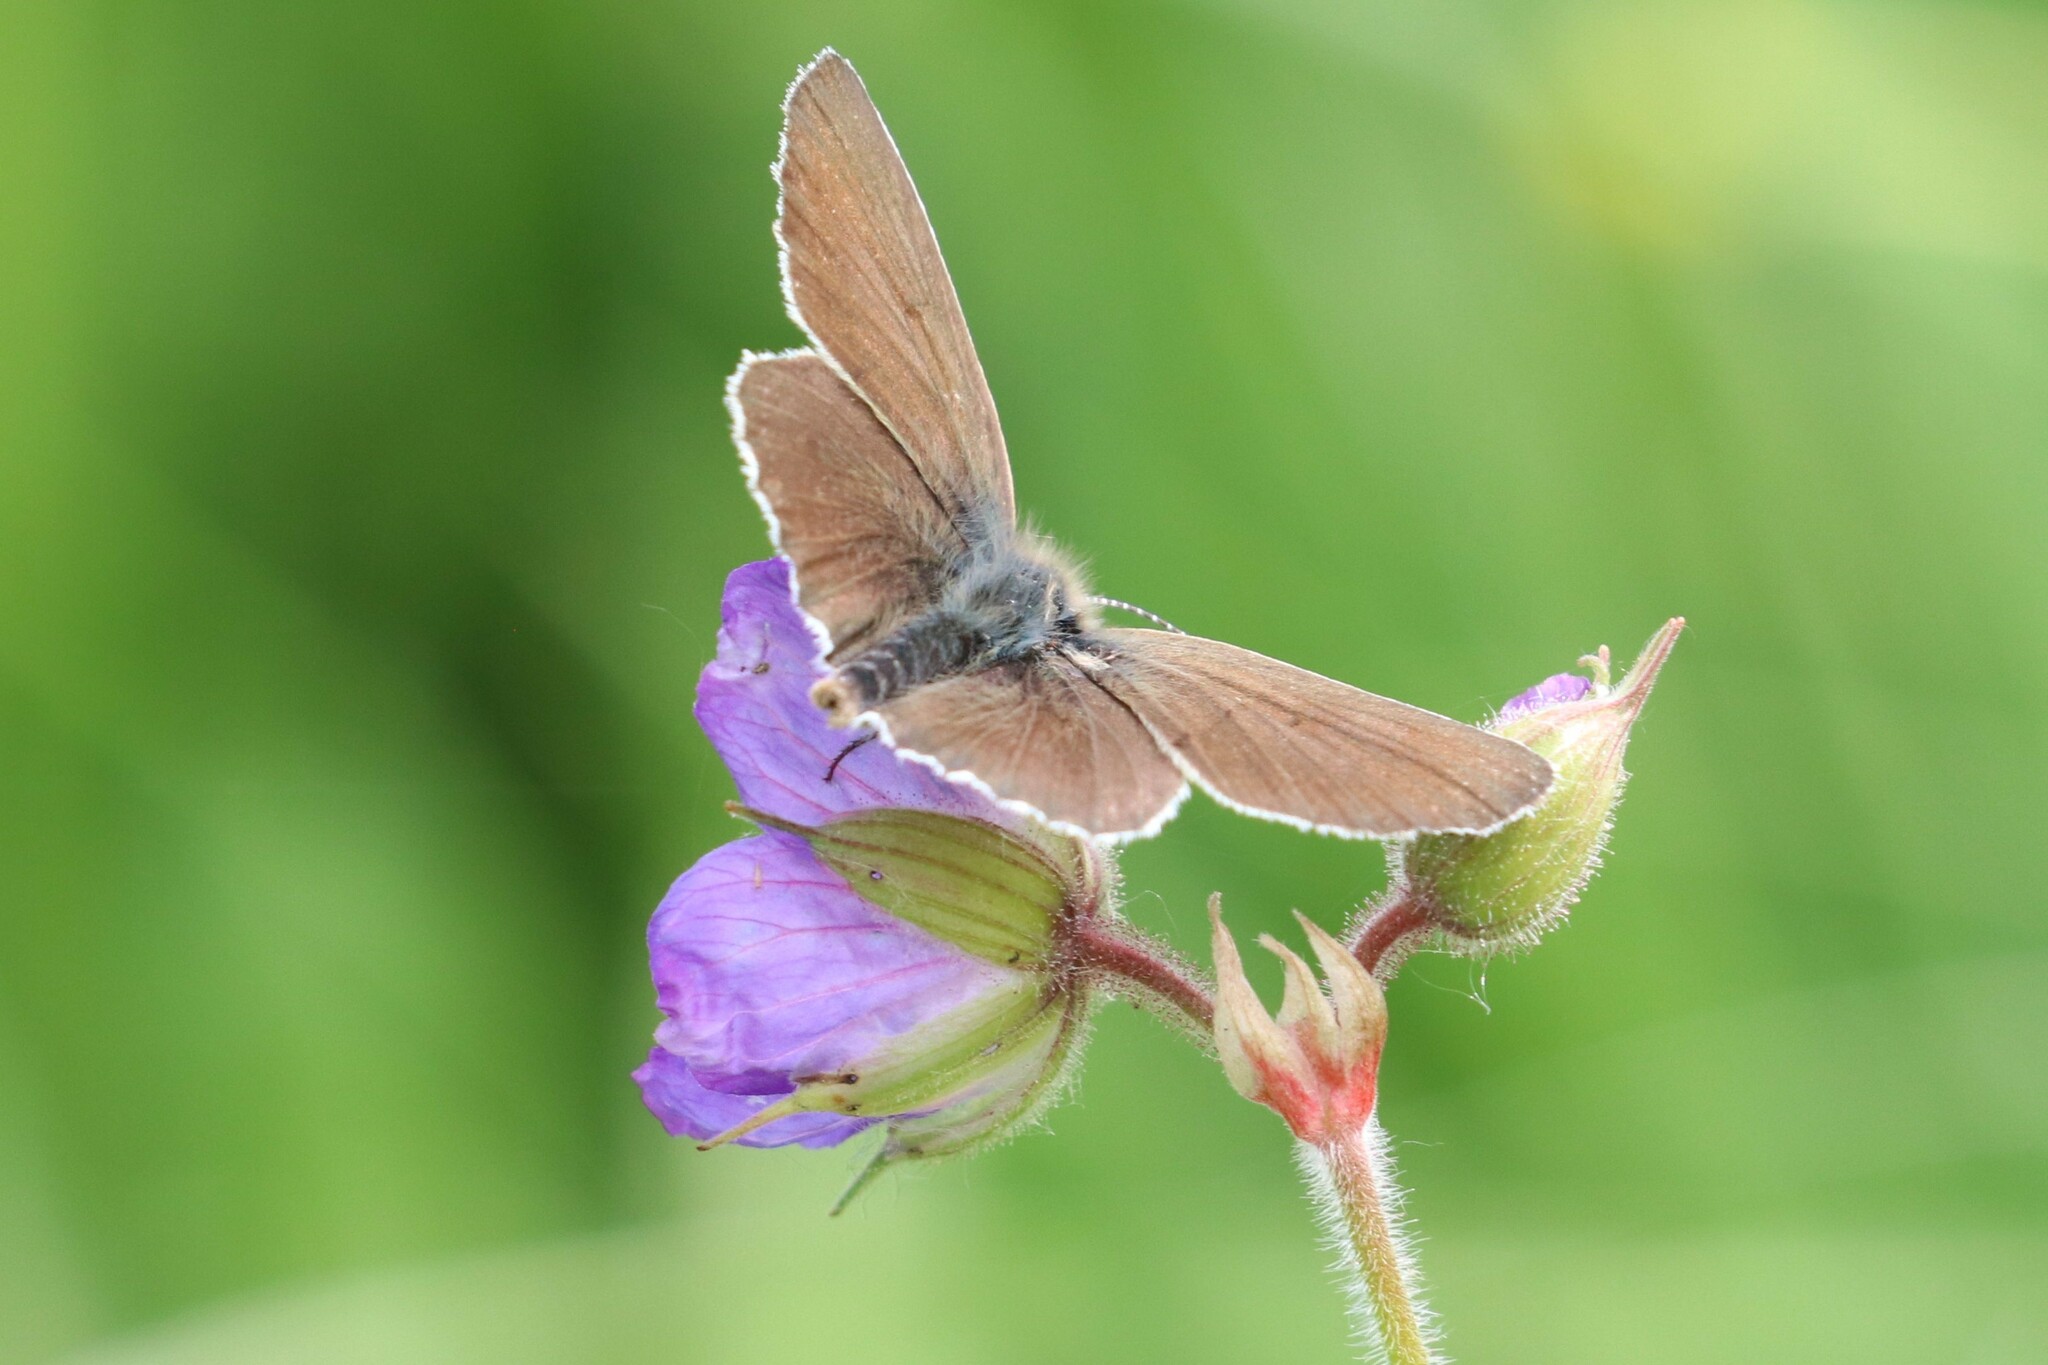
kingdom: Animalia
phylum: Arthropoda
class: Insecta
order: Lepidoptera
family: Lycaenidae
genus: Eumedonia
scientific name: Eumedonia eumedon
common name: Geranium argus
